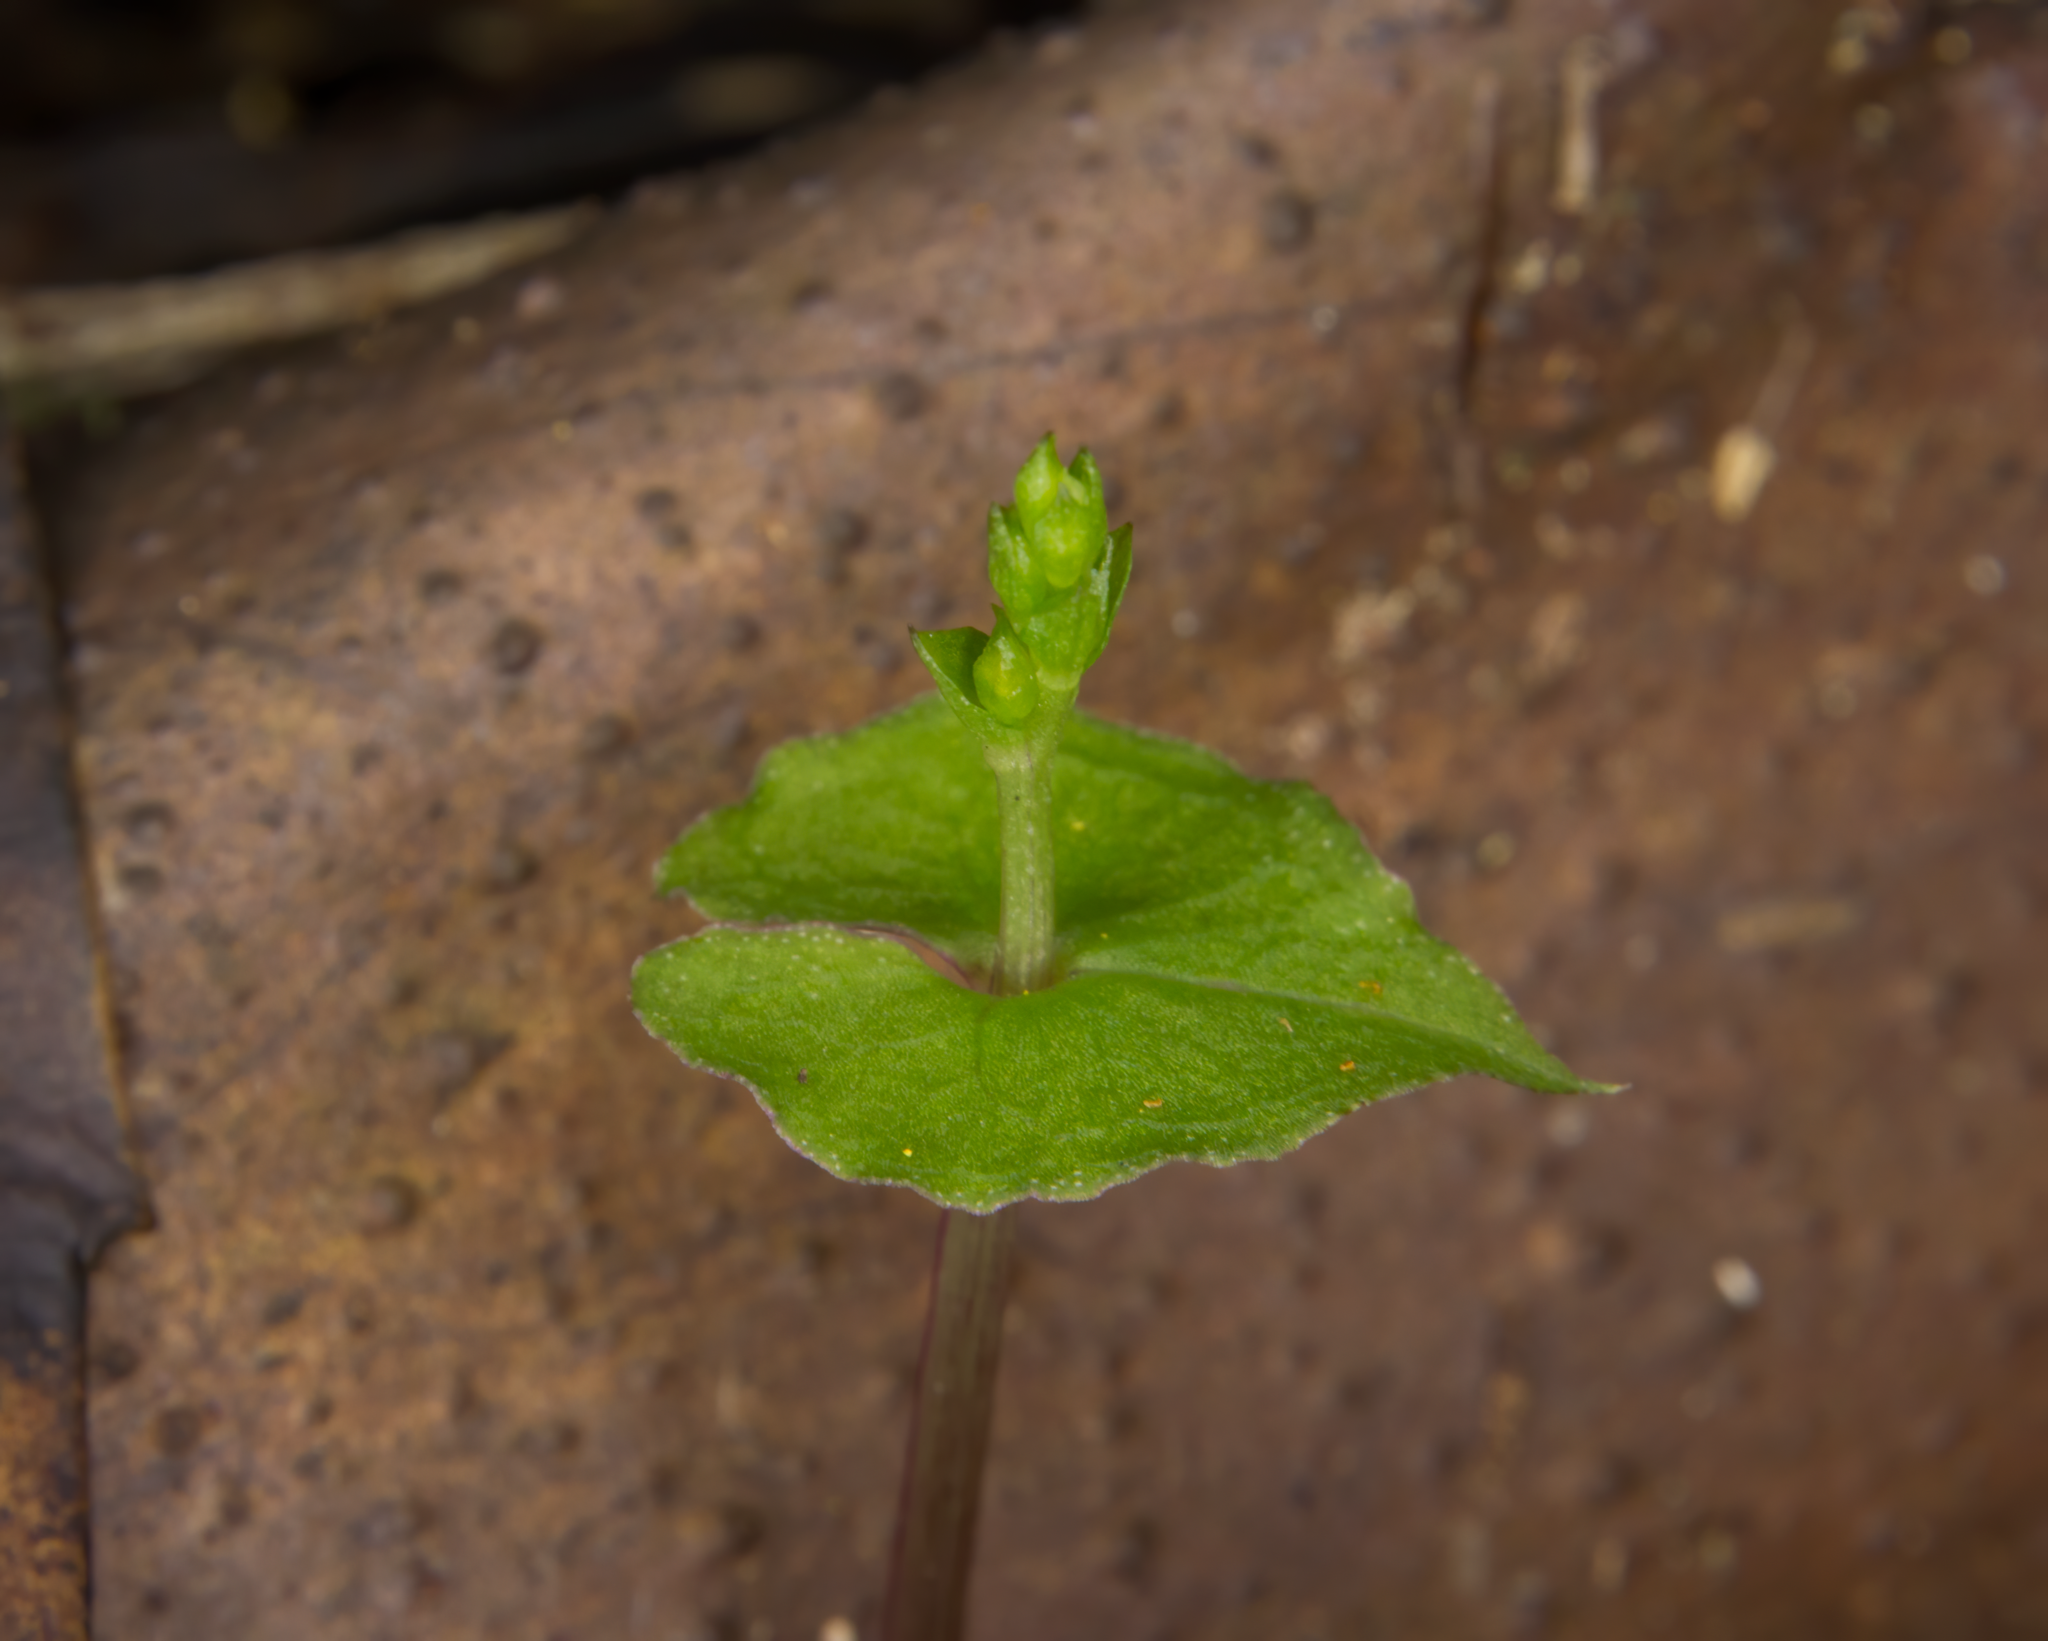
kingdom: Plantae
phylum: Tracheophyta
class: Liliopsida
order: Asparagales
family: Orchidaceae
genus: Acianthus
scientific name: Acianthus sinclairii
